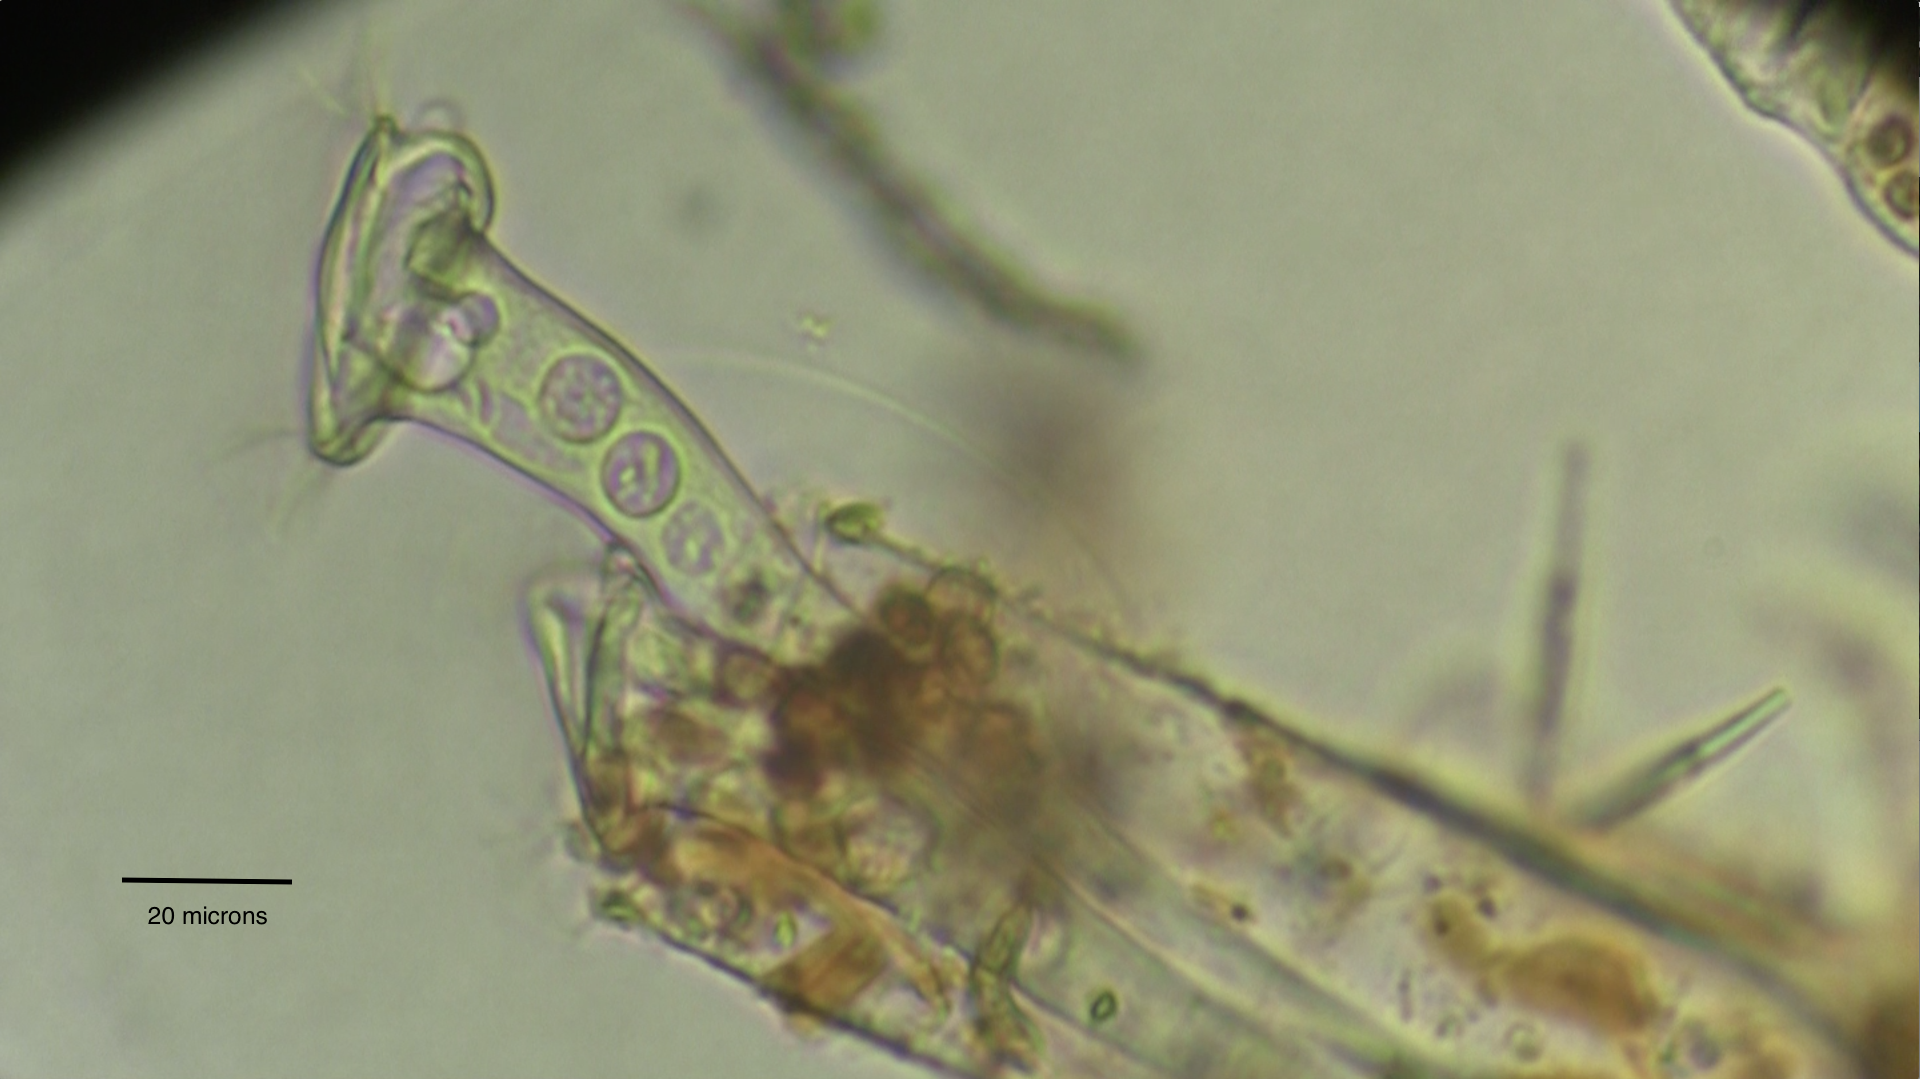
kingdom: Chromista
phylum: Ciliophora
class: Oligohymenophorea
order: Peritrichida
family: Vaginicolidae
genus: Thuricola
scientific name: Thuricola
